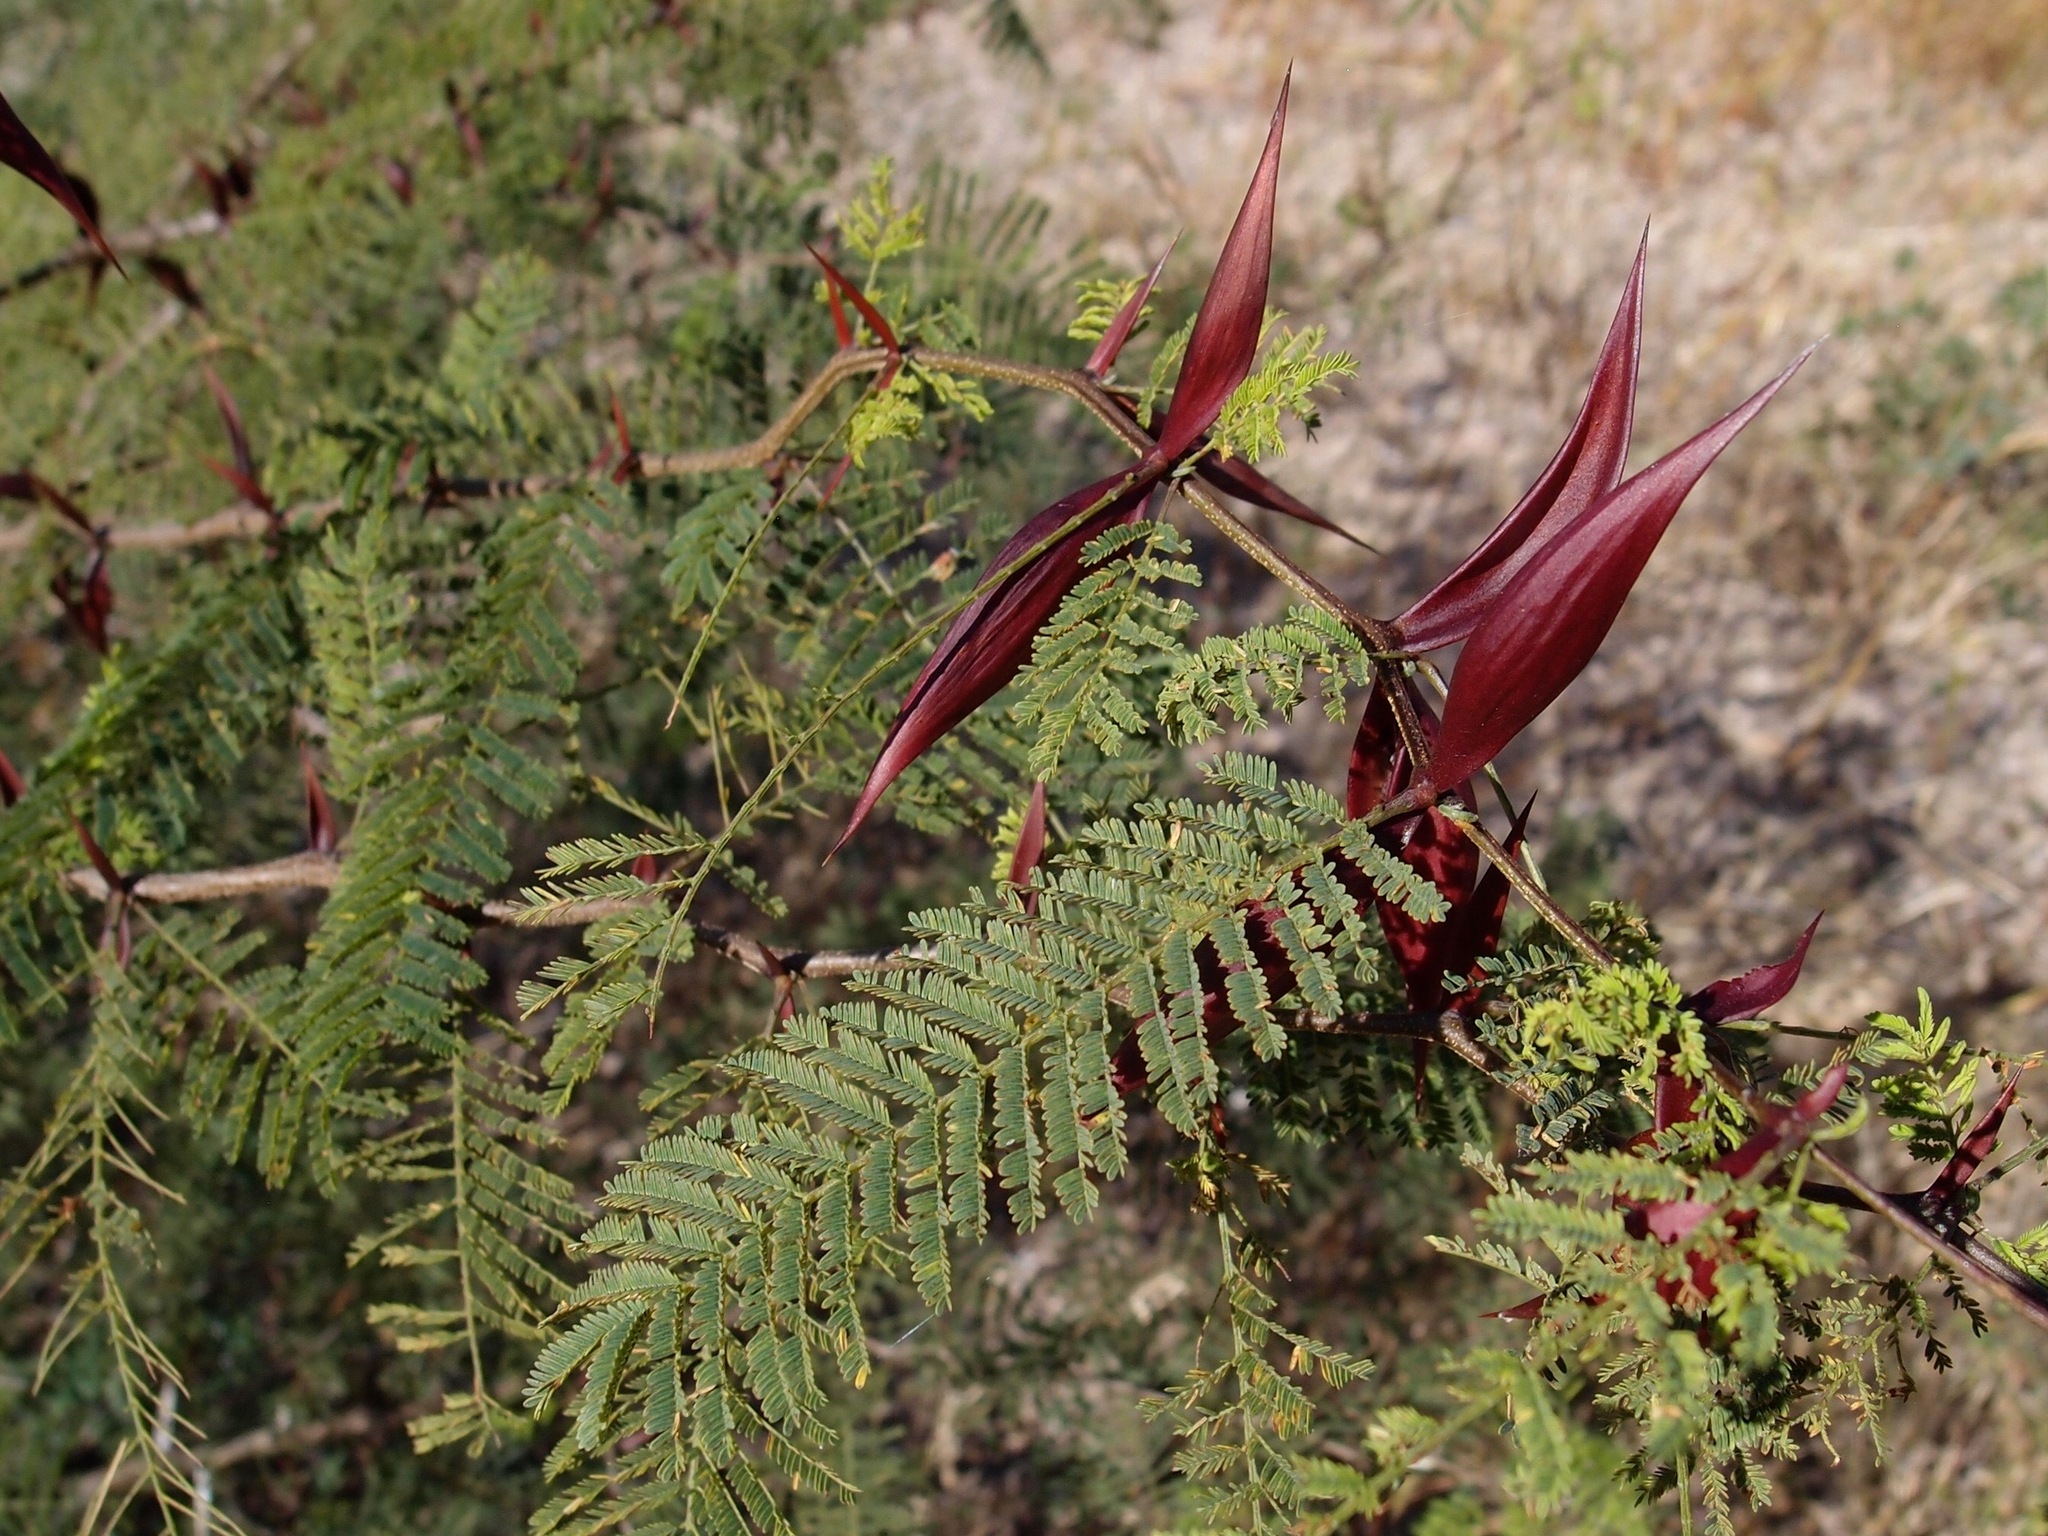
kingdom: Plantae
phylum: Tracheophyta
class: Magnoliopsida
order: Fabales
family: Fabaceae
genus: Vachellia
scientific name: Vachellia campechiana
